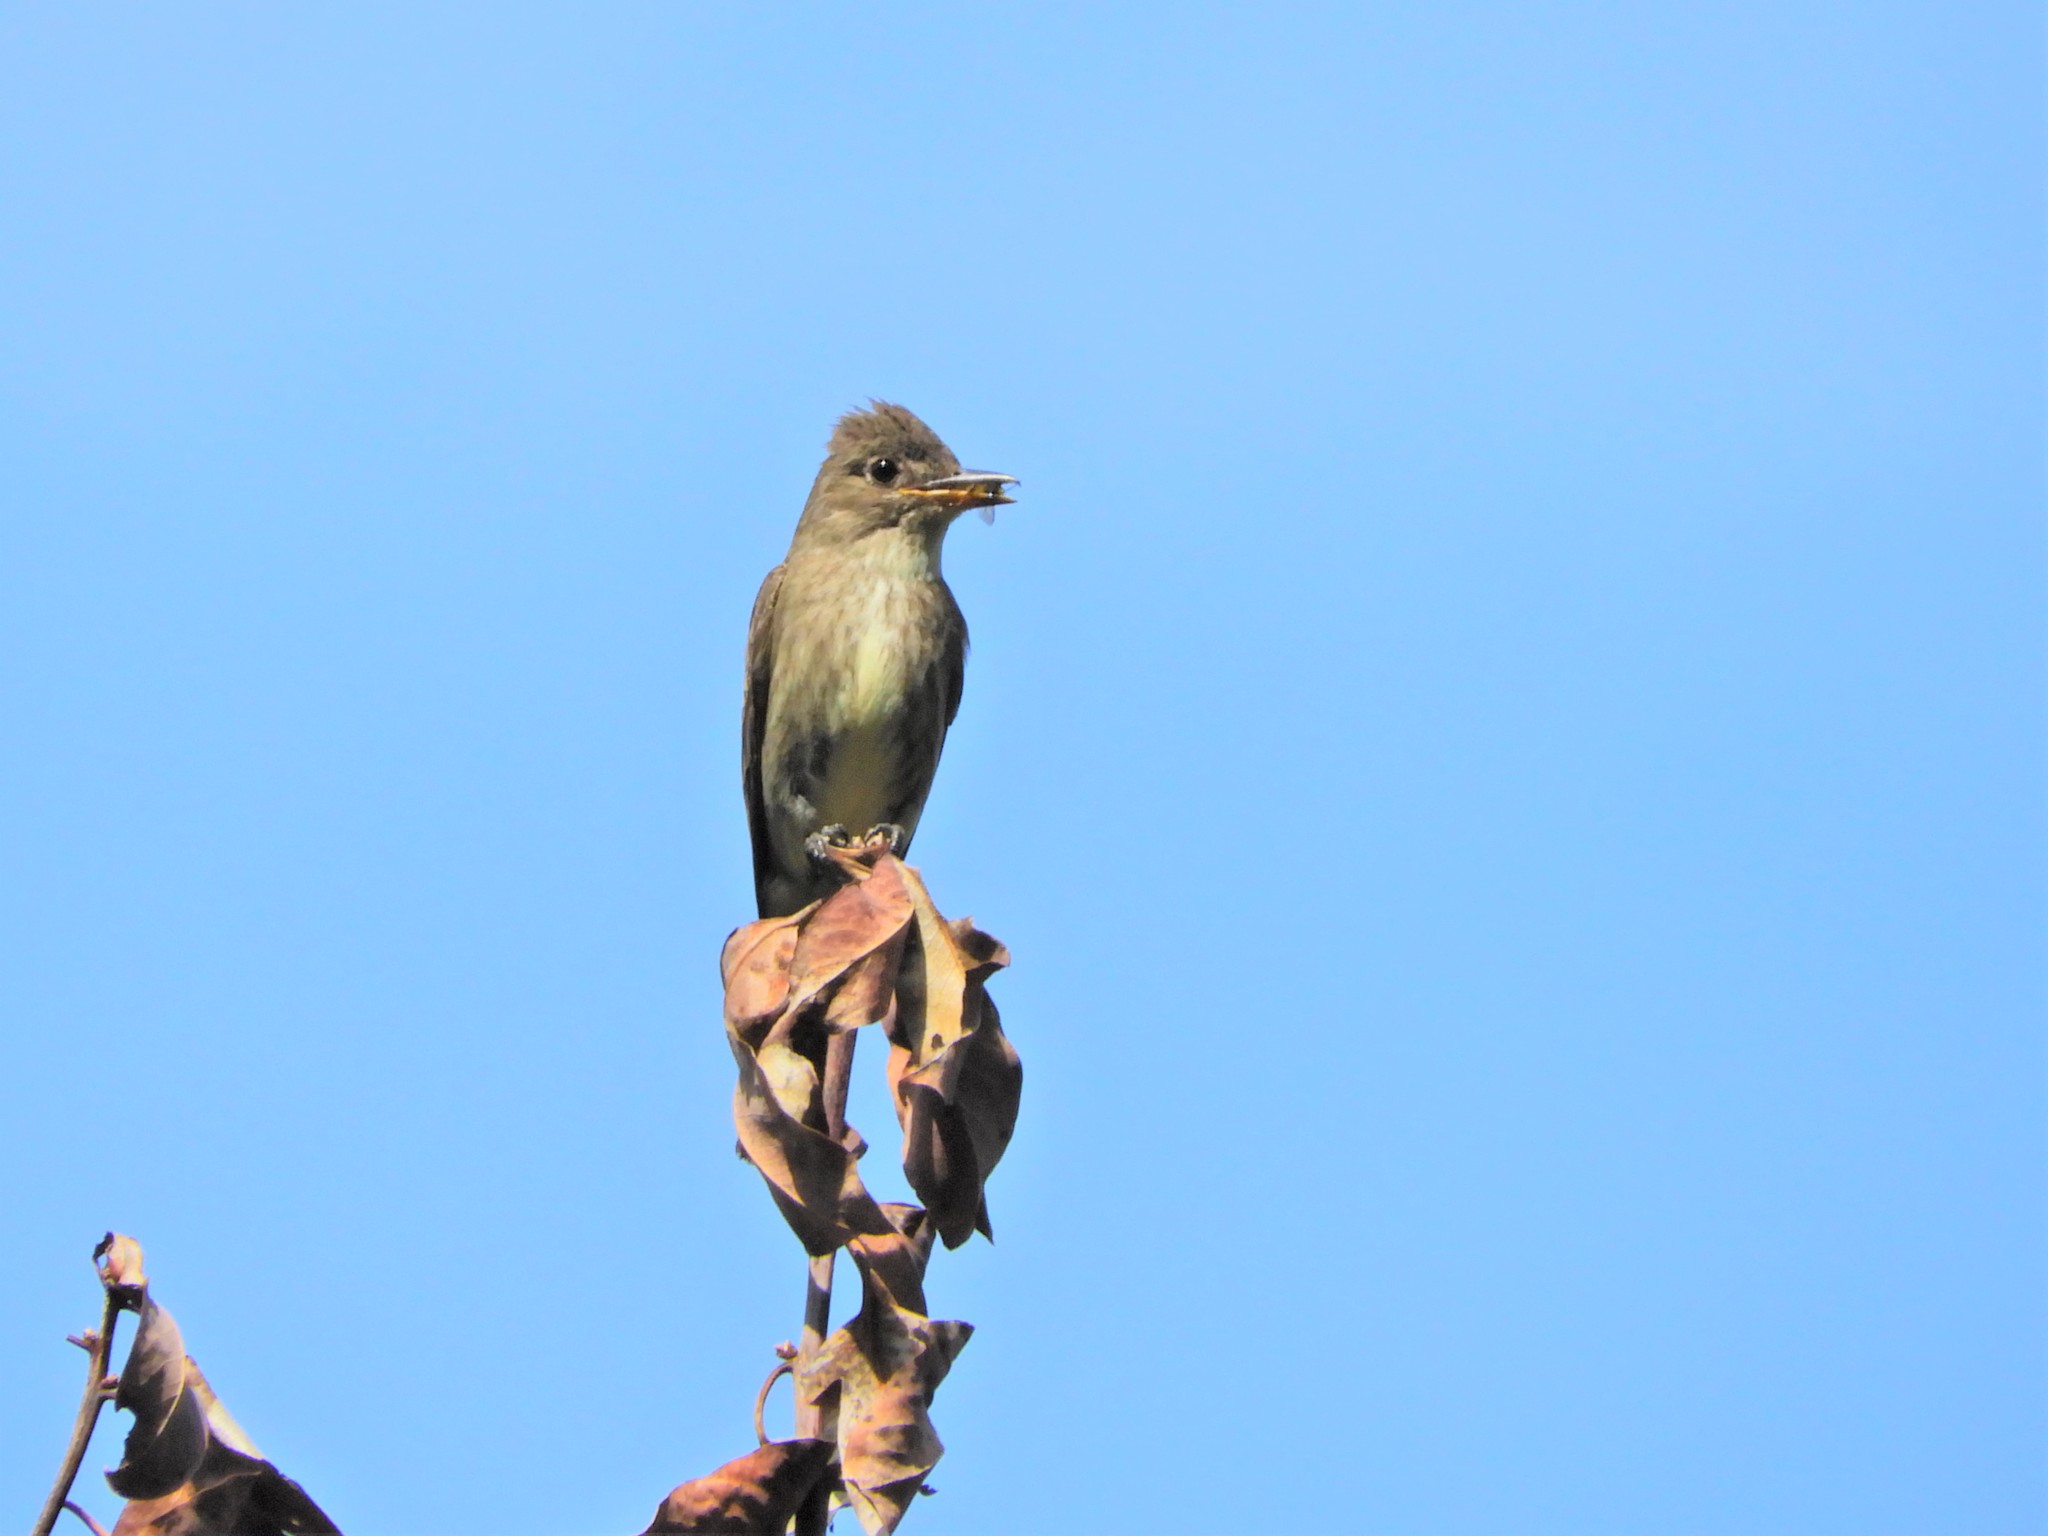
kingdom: Animalia
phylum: Chordata
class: Aves
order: Passeriformes
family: Tyrannidae
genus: Contopus
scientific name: Contopus cooperi
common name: Olive-sided flycatcher
